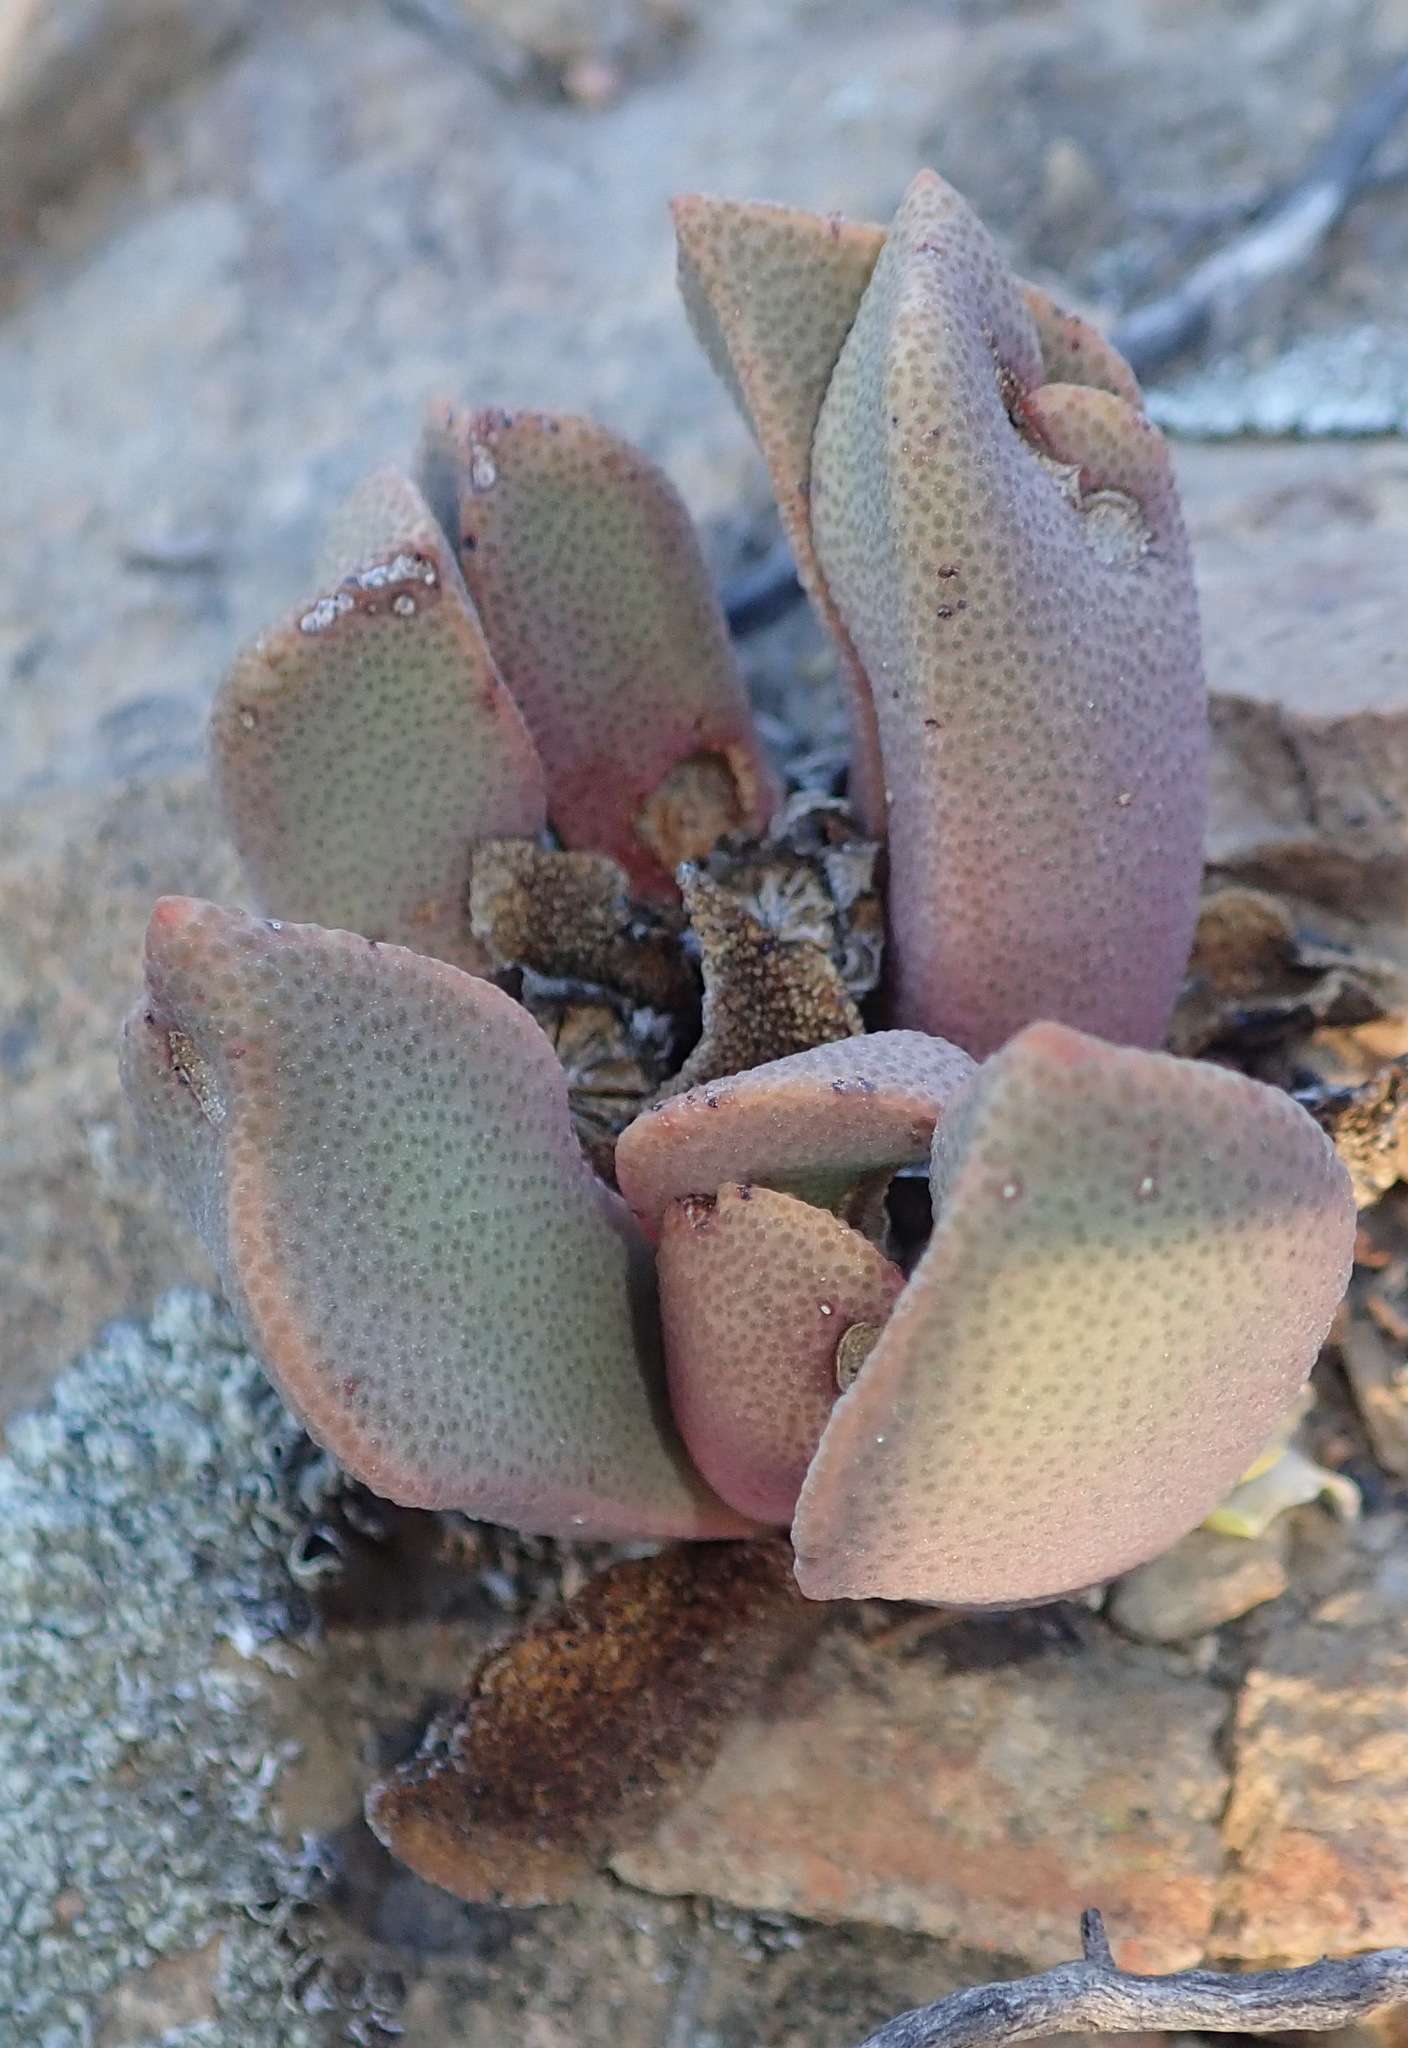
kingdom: Plantae
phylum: Tracheophyta
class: Magnoliopsida
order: Caryophyllales
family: Aizoaceae
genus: Pleiospilos
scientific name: Pleiospilos compactus
